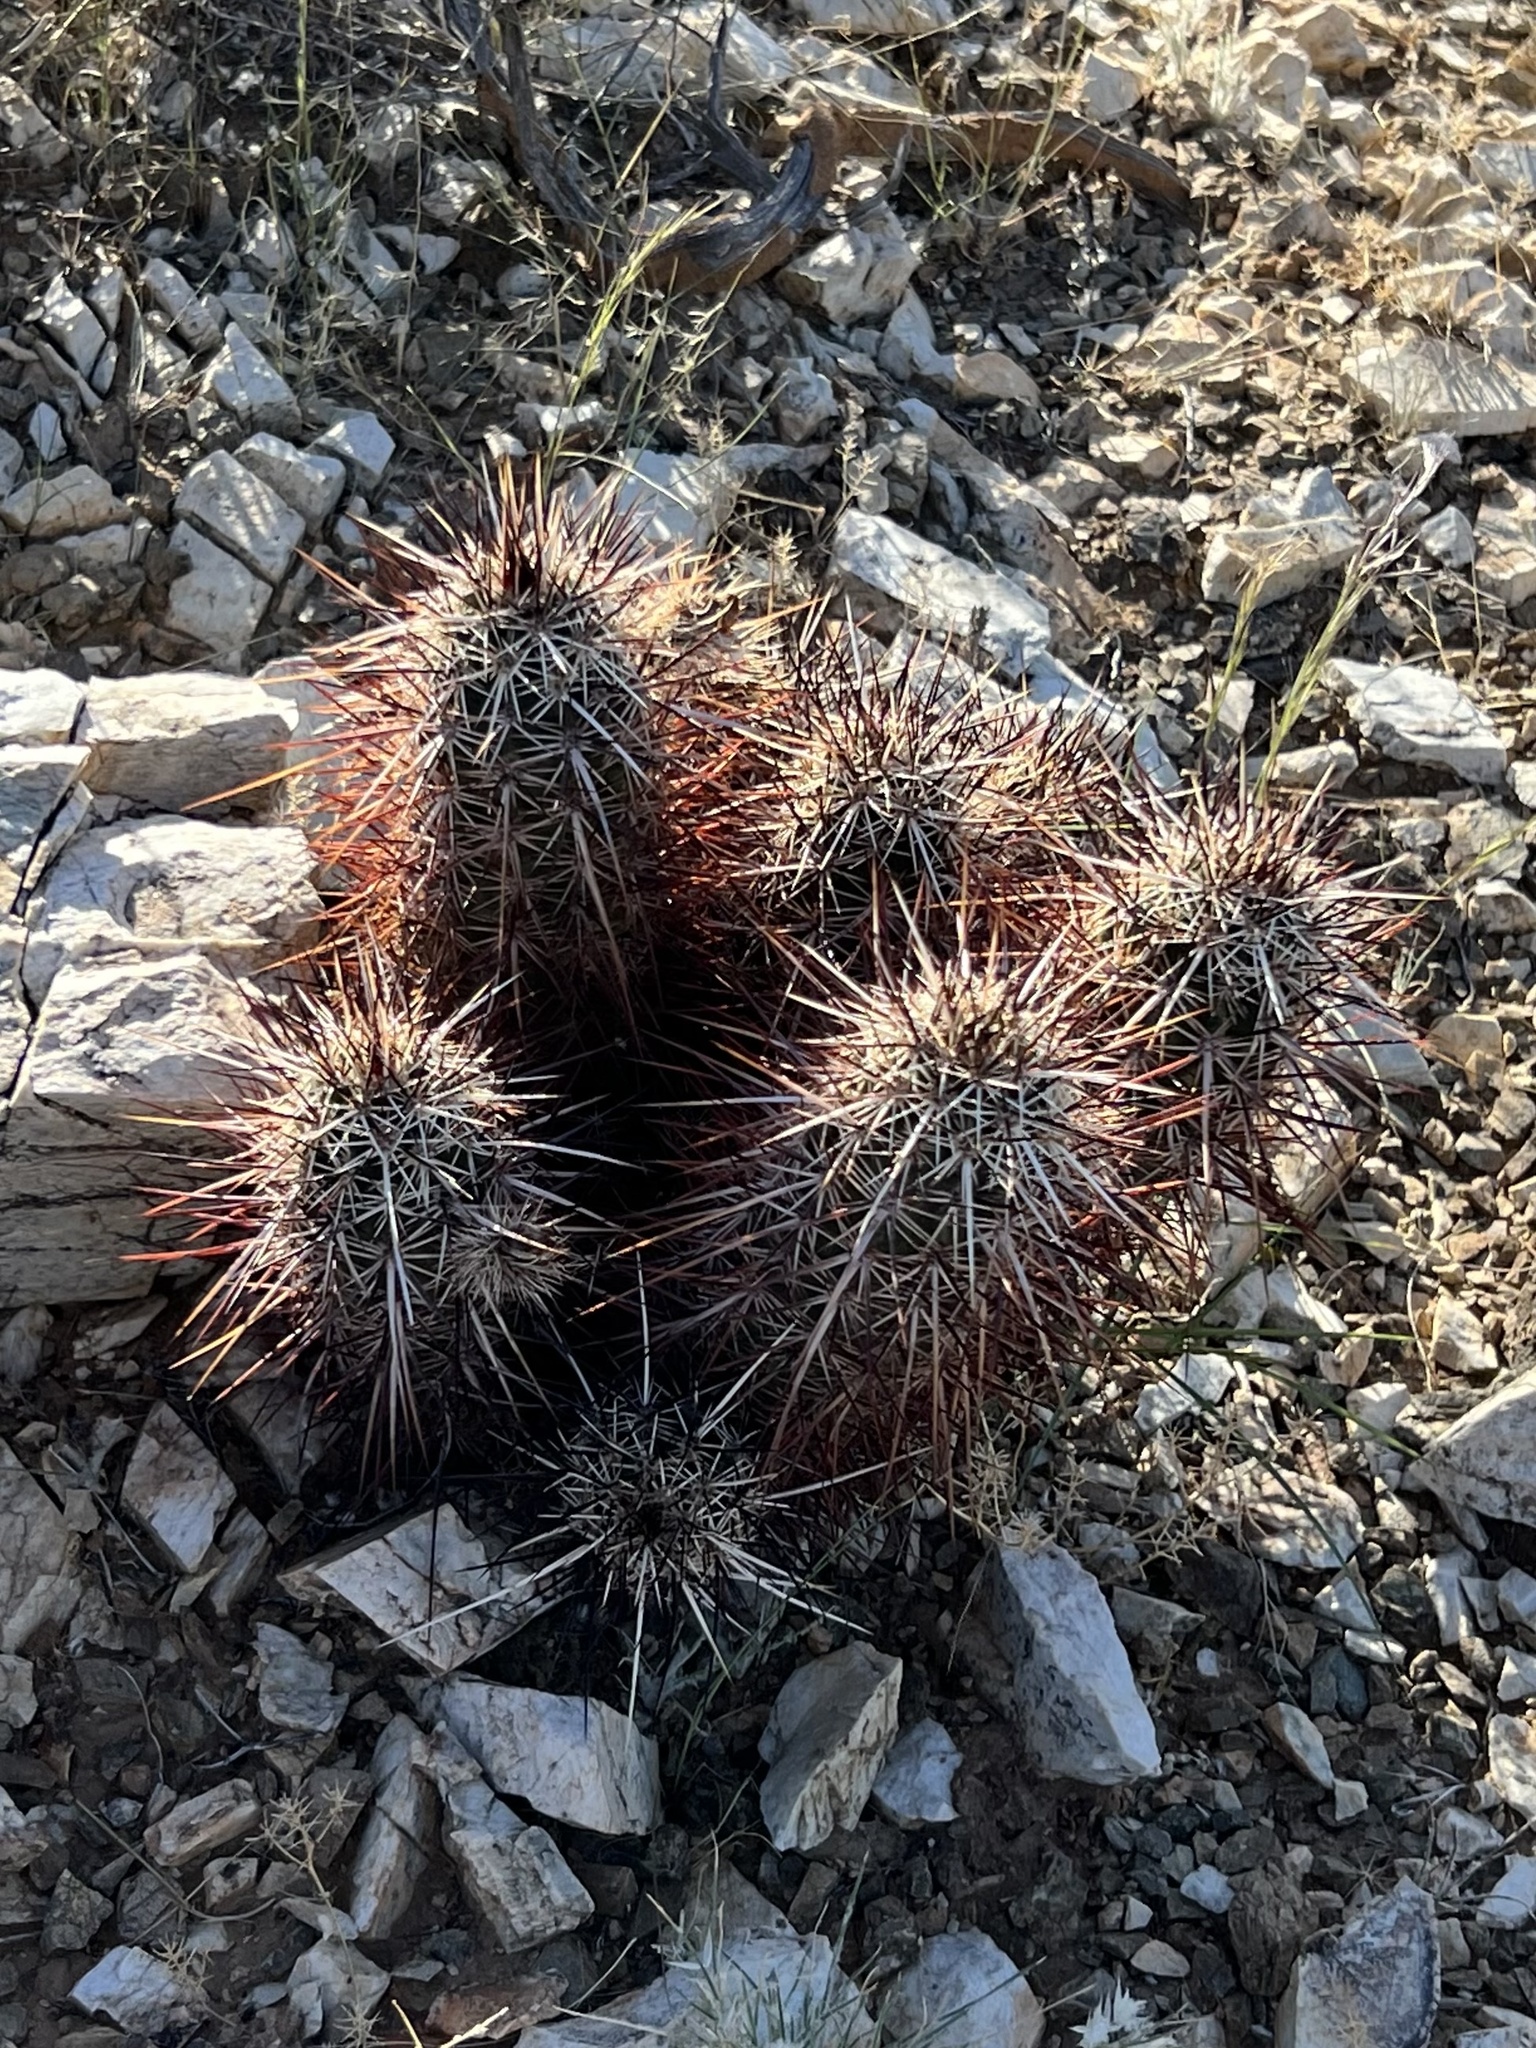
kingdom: Plantae
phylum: Tracheophyta
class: Magnoliopsida
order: Caryophyllales
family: Cactaceae
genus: Echinocereus
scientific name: Echinocereus engelmannii
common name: Engelmann's hedgehog cactus
